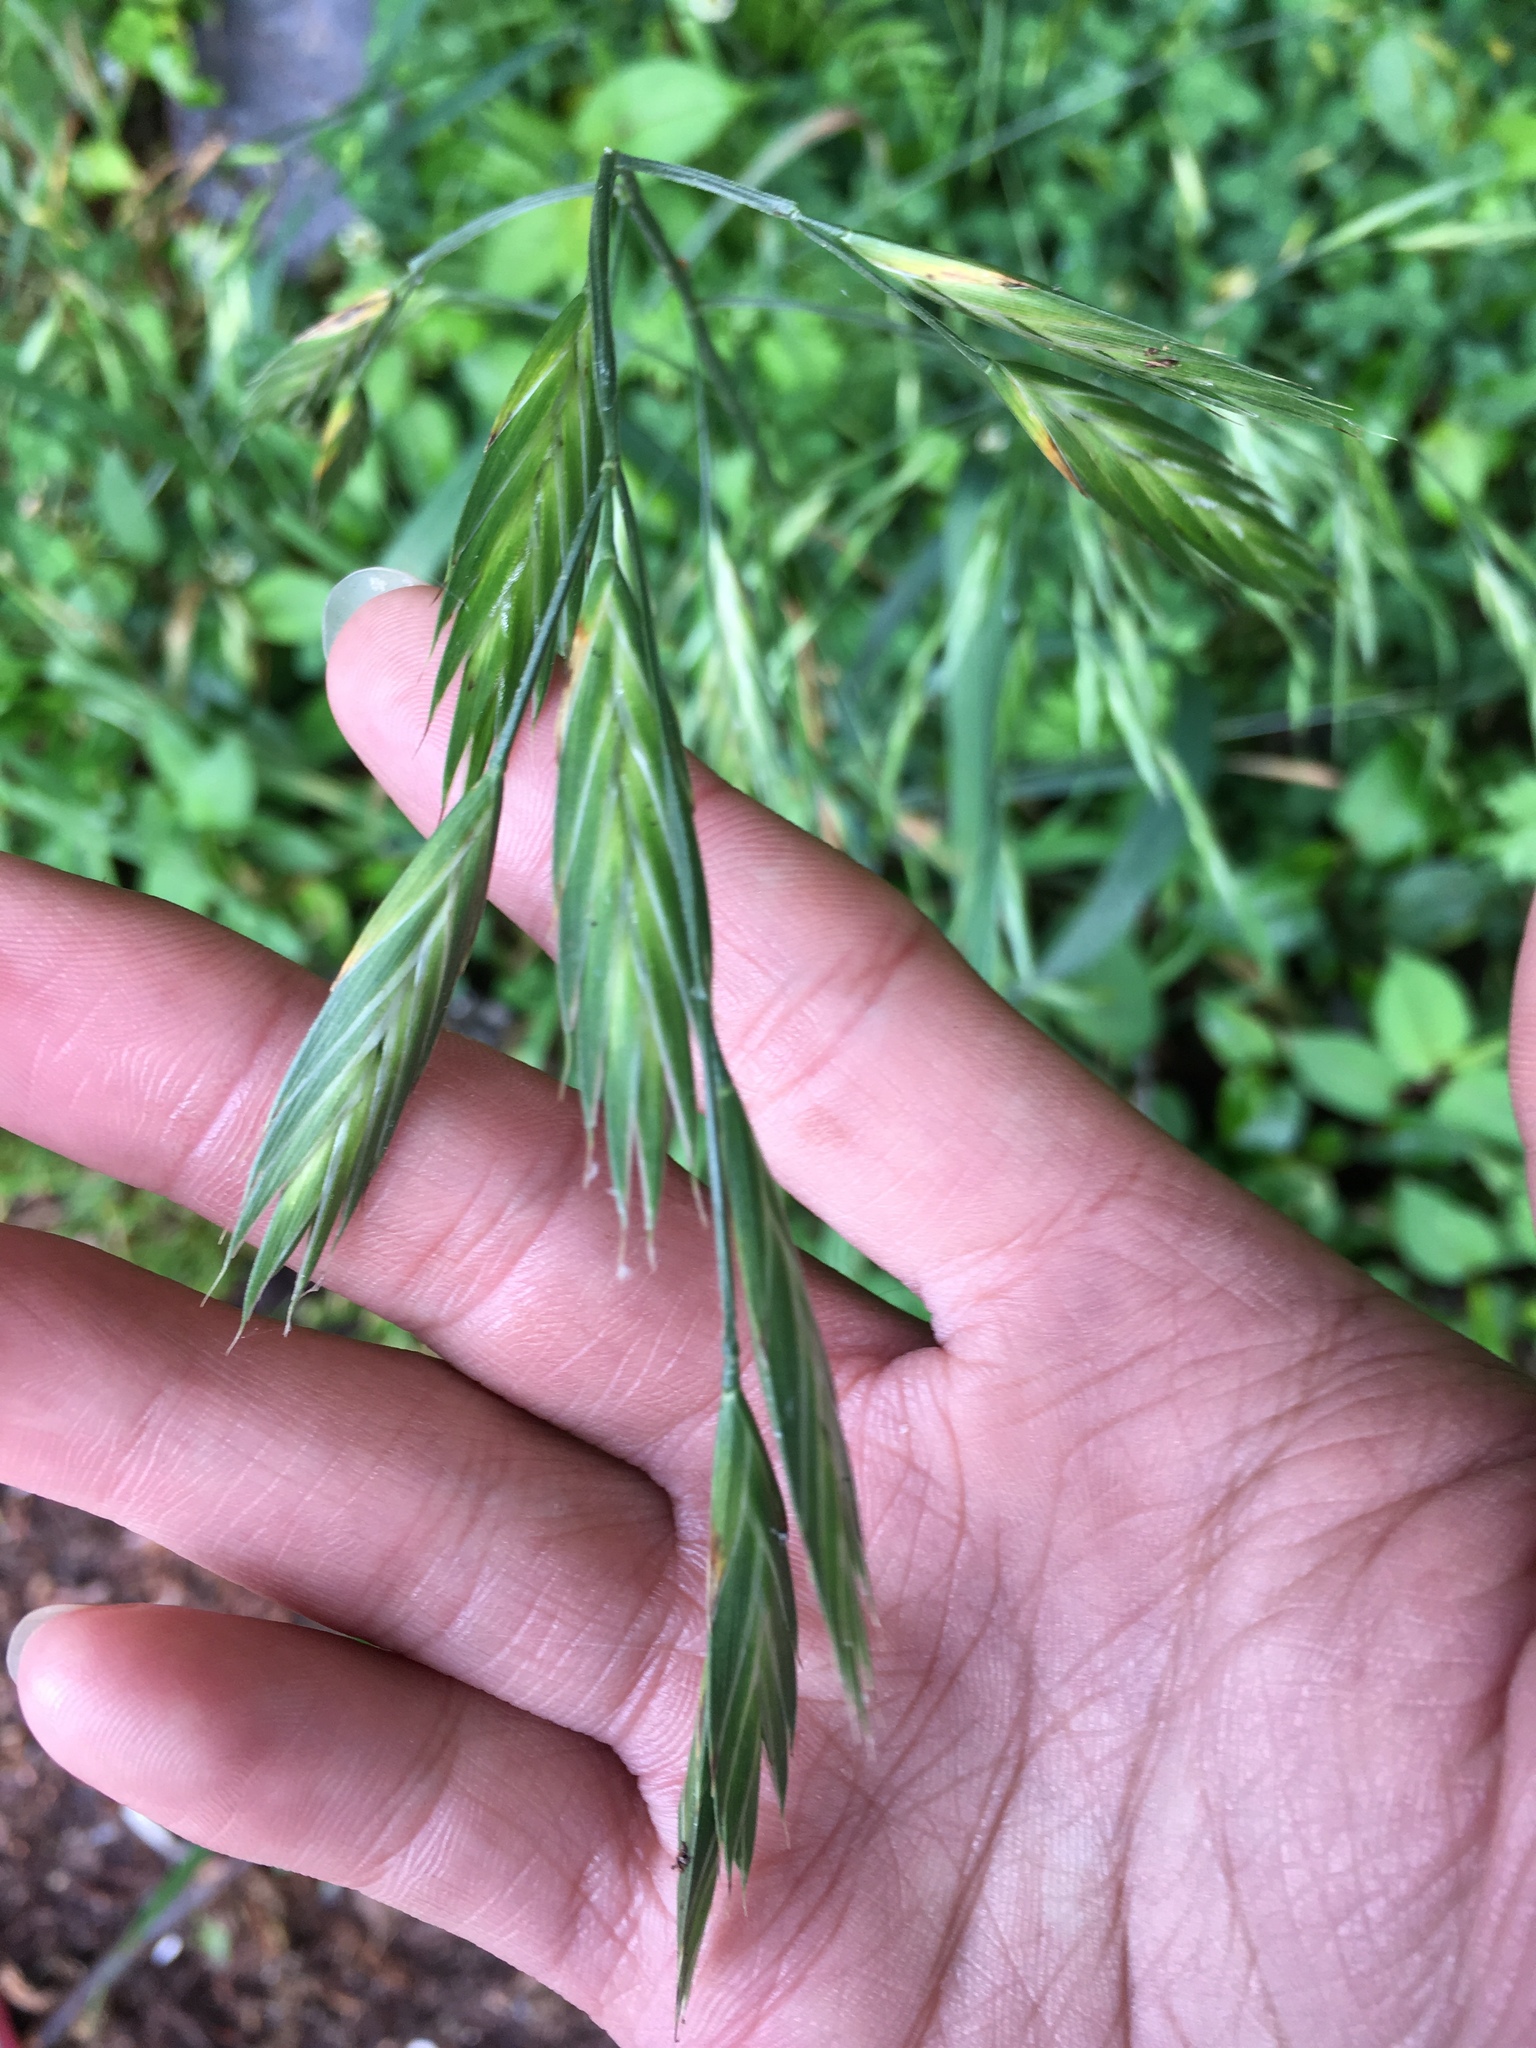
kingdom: Plantae
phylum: Tracheophyta
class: Liliopsida
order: Poales
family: Poaceae
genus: Bromus
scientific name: Bromus catharticus
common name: Rescuegrass
